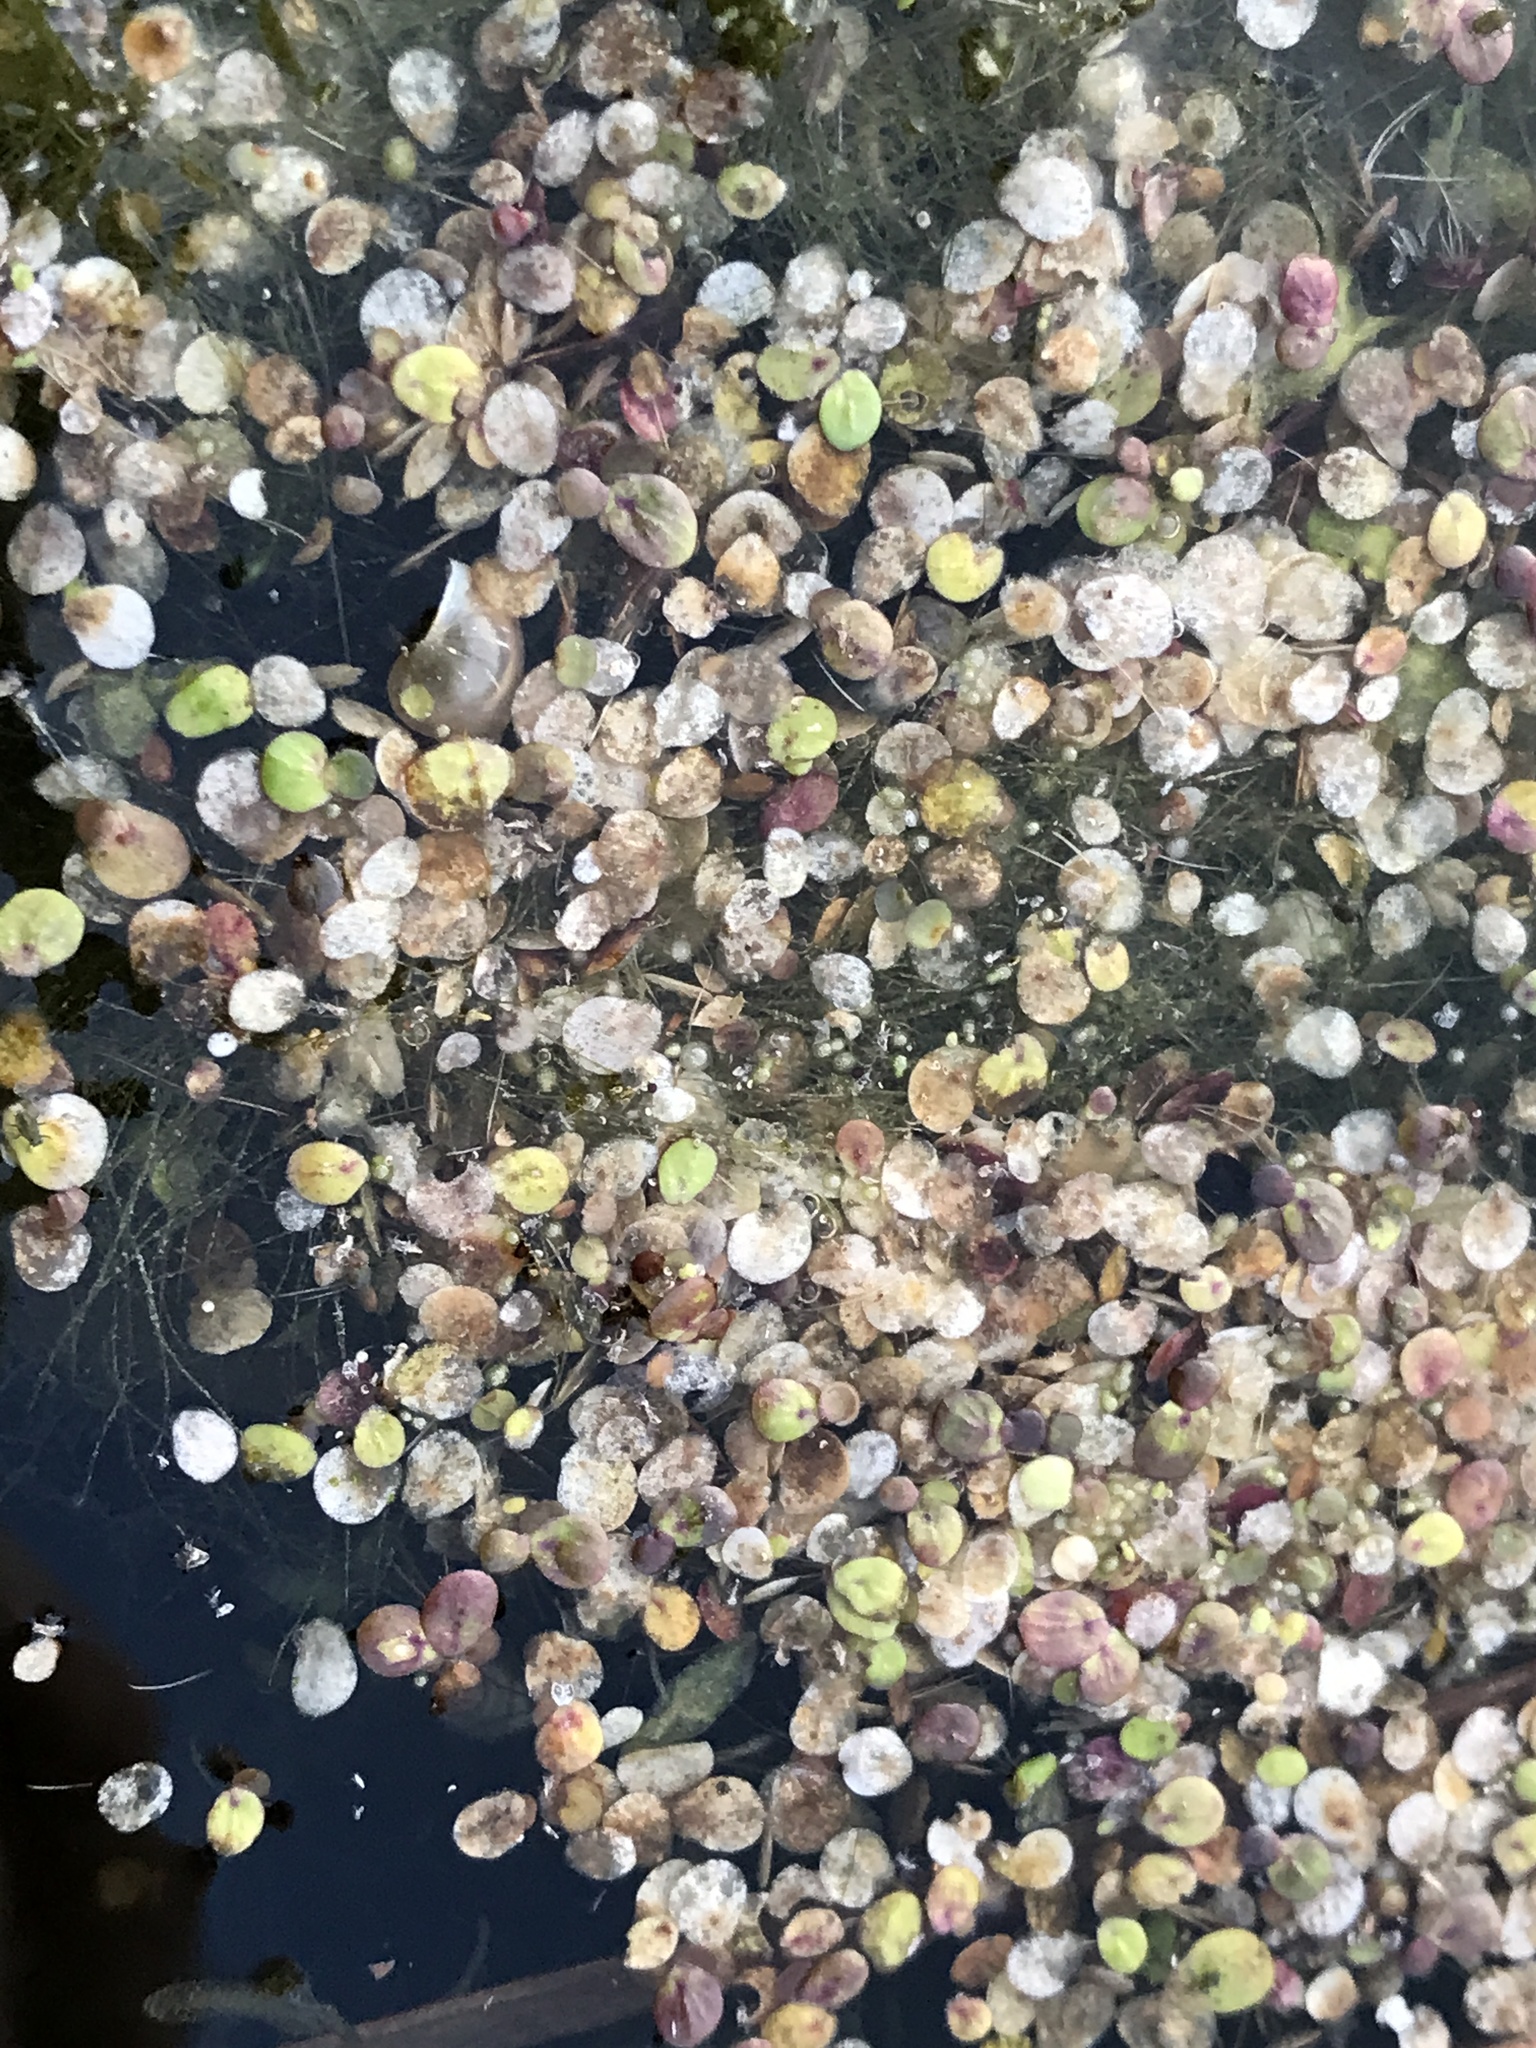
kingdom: Plantae
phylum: Tracheophyta
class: Liliopsida
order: Alismatales
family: Araceae
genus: Spirodela
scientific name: Spirodela polyrhiza
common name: Great duckweed
